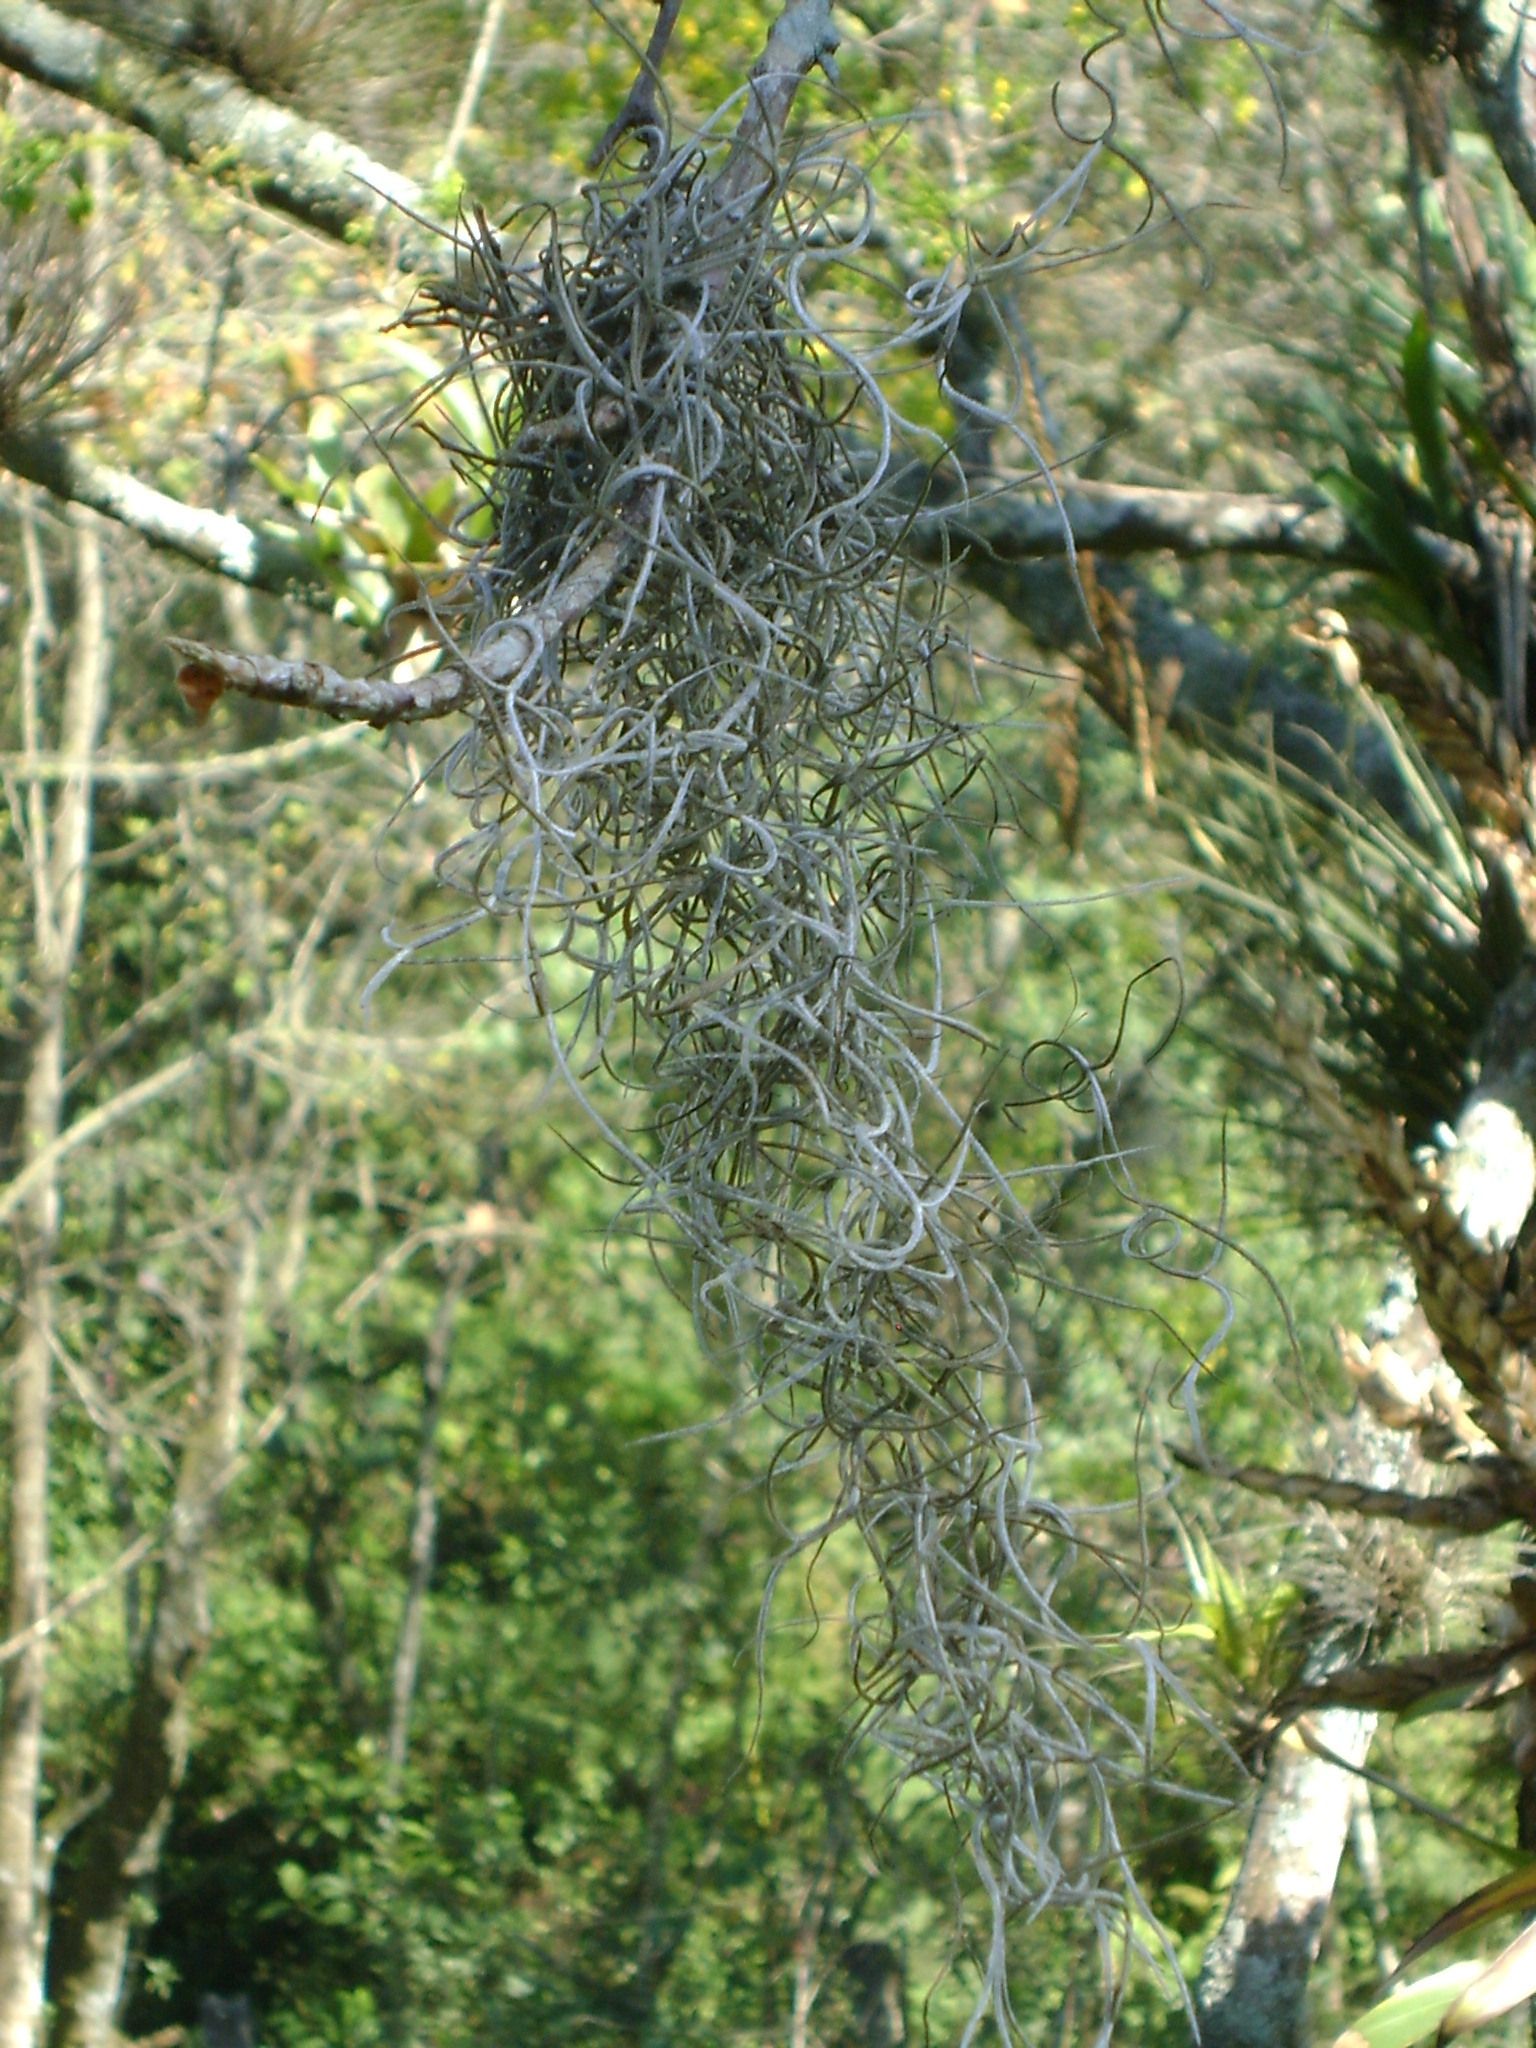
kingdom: Plantae
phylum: Tracheophyta
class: Liliopsida
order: Poales
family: Bromeliaceae
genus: Tillandsia
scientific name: Tillandsia usneoides
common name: Spanish moss
